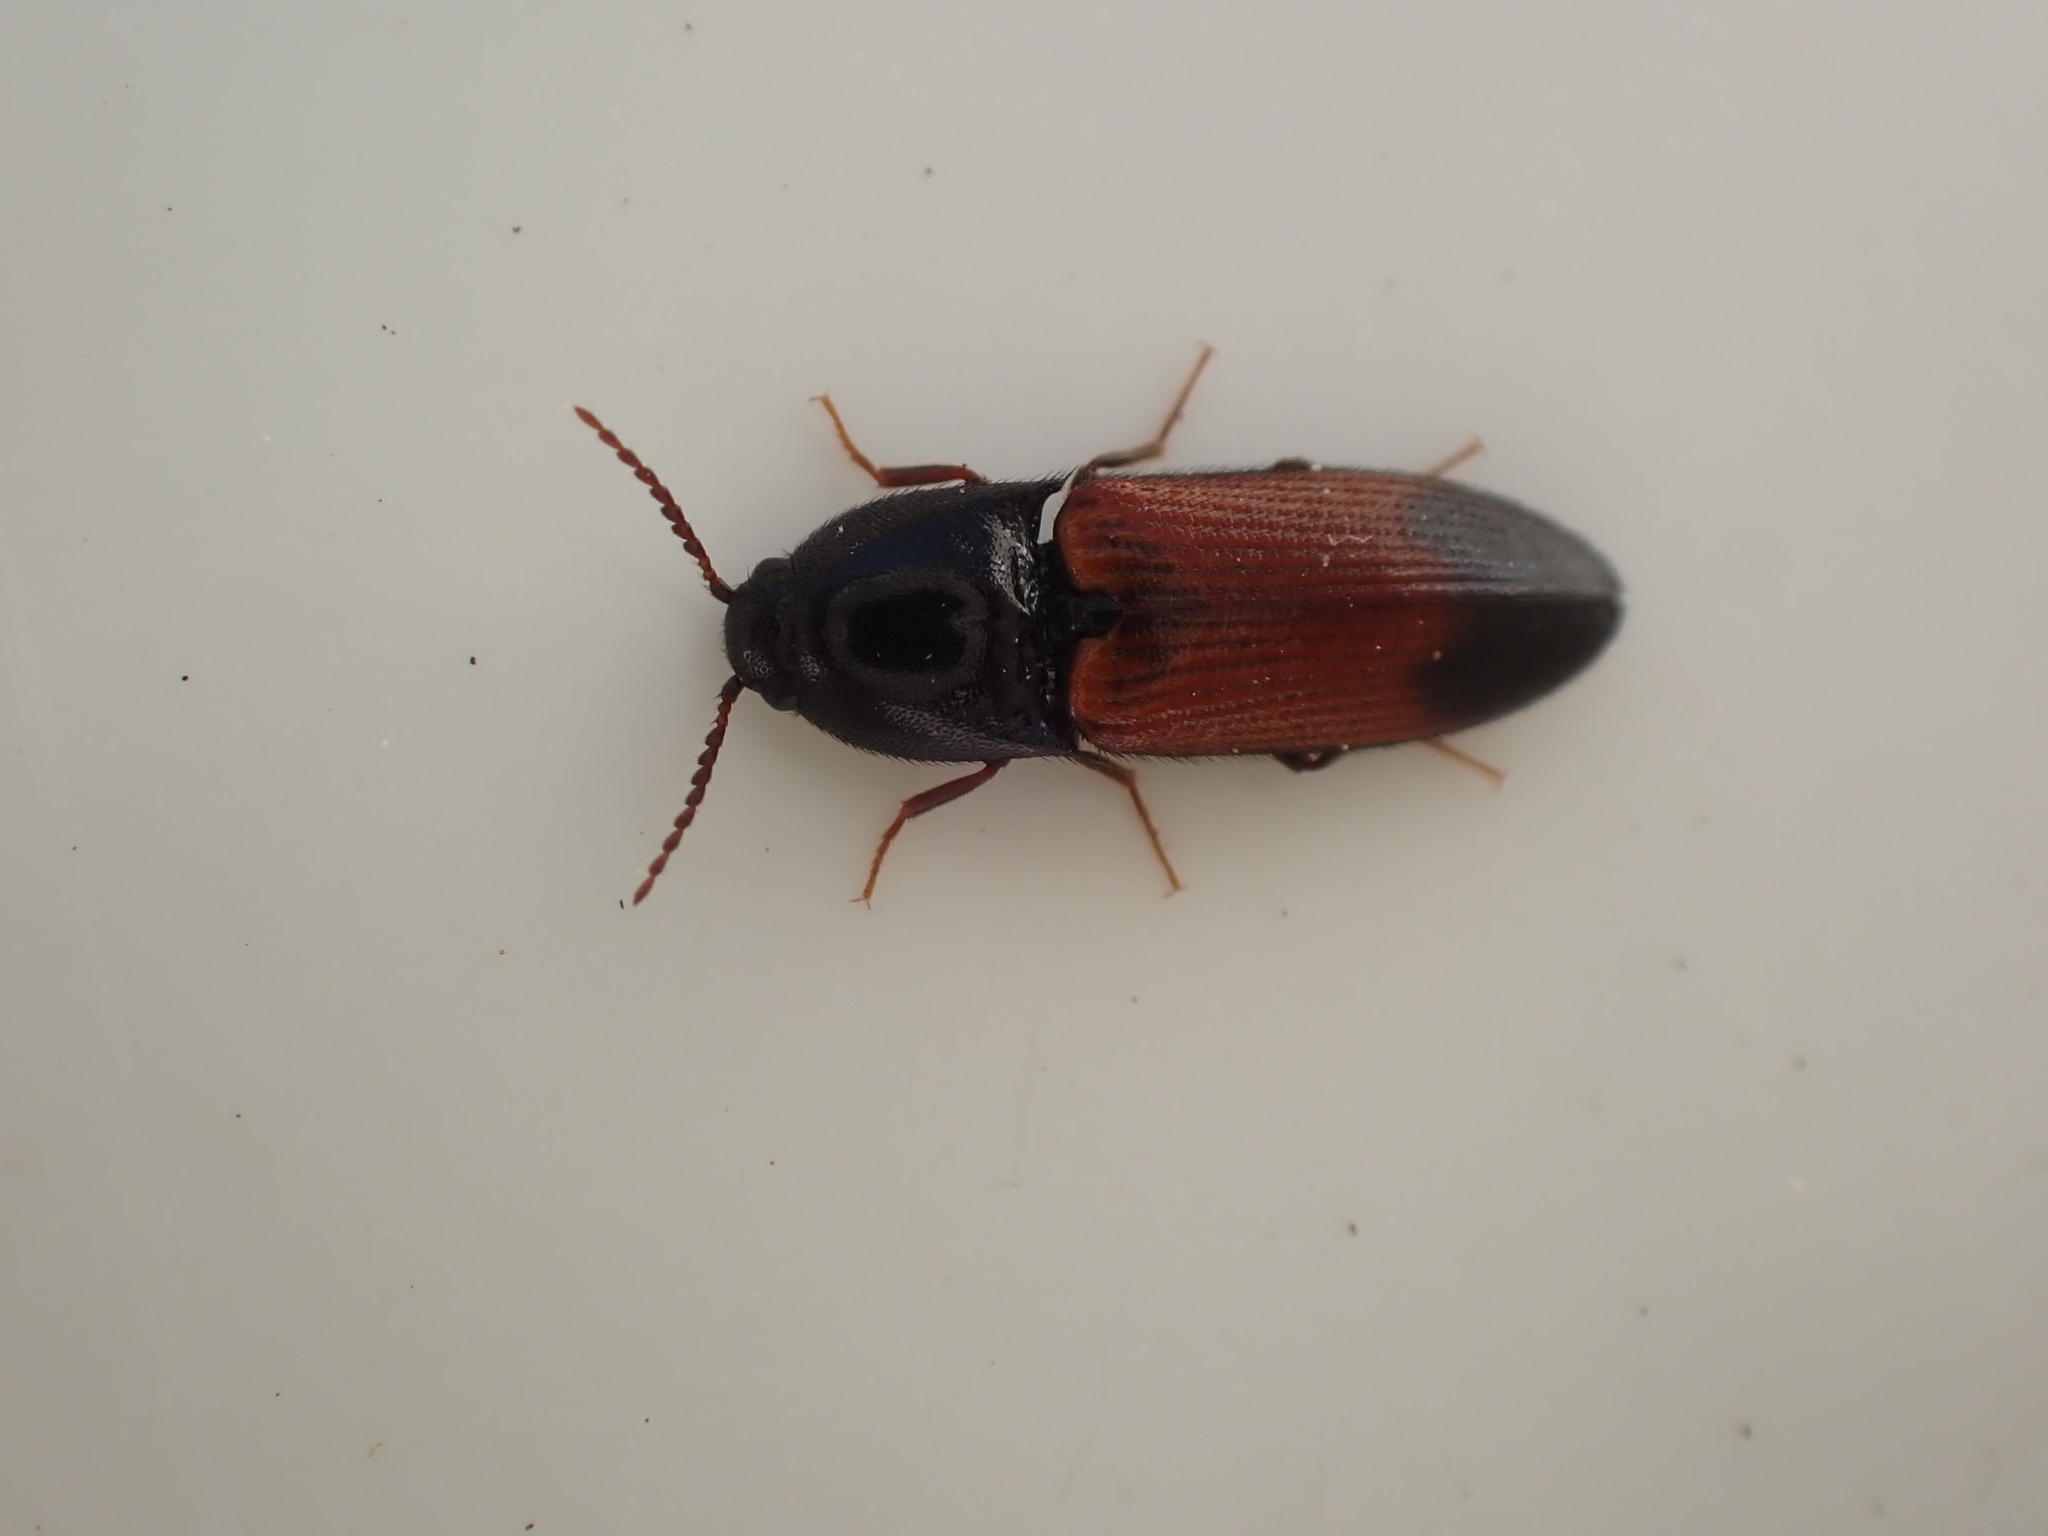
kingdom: Animalia
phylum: Arthropoda
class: Insecta
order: Coleoptera
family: Elateridae
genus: Ampedus
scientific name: Ampedus balteatus
